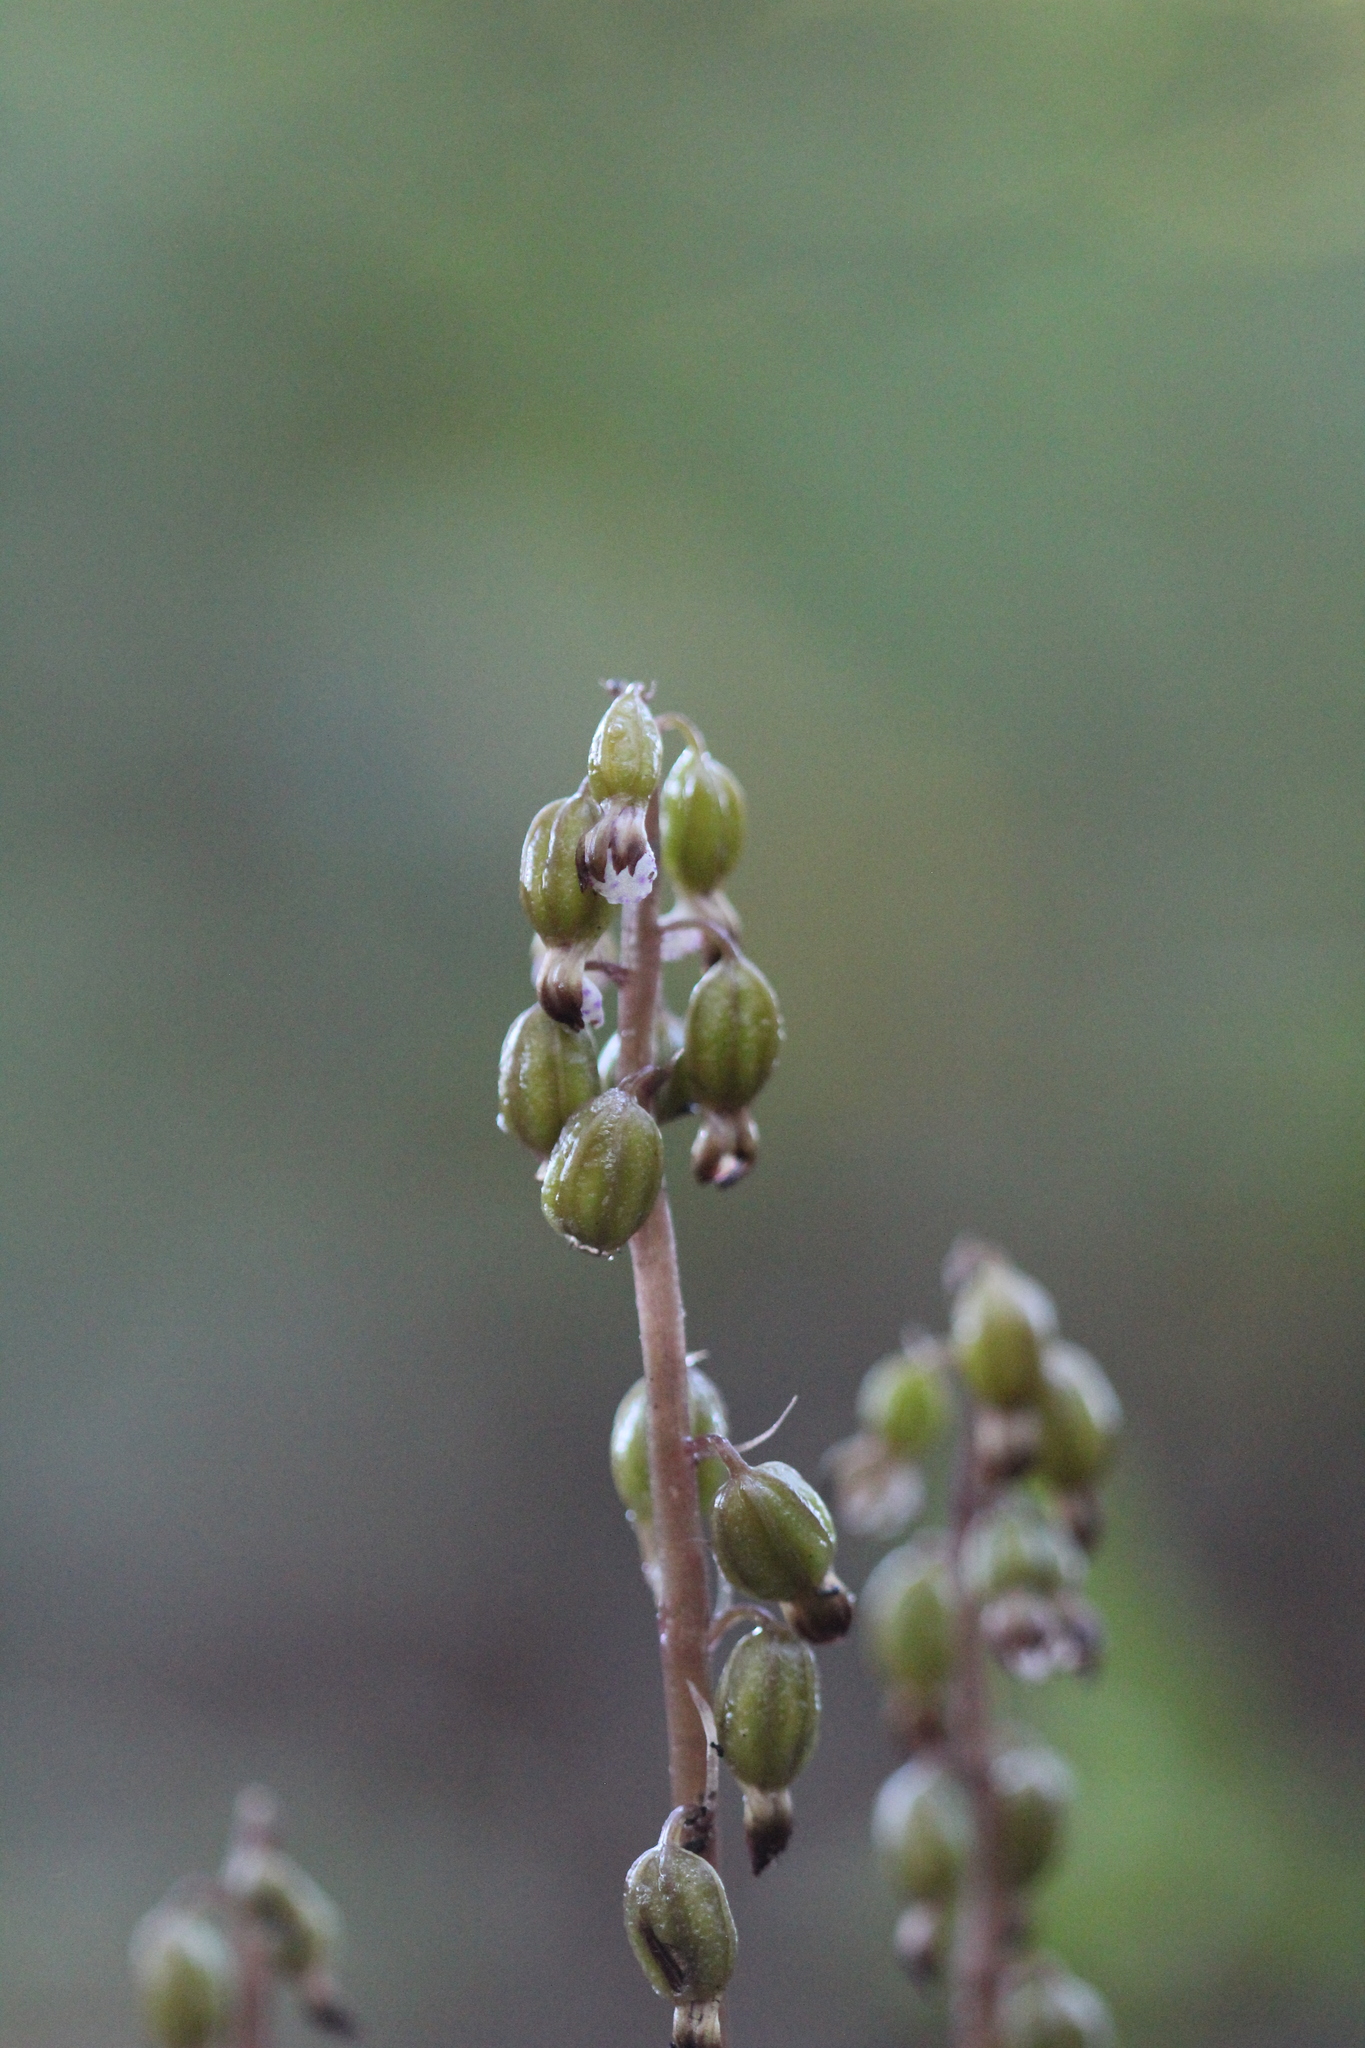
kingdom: Plantae
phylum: Tracheophyta
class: Liliopsida
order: Asparagales
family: Orchidaceae
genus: Corallorhiza
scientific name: Corallorhiza odontorhiza
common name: Autumn coralroot
